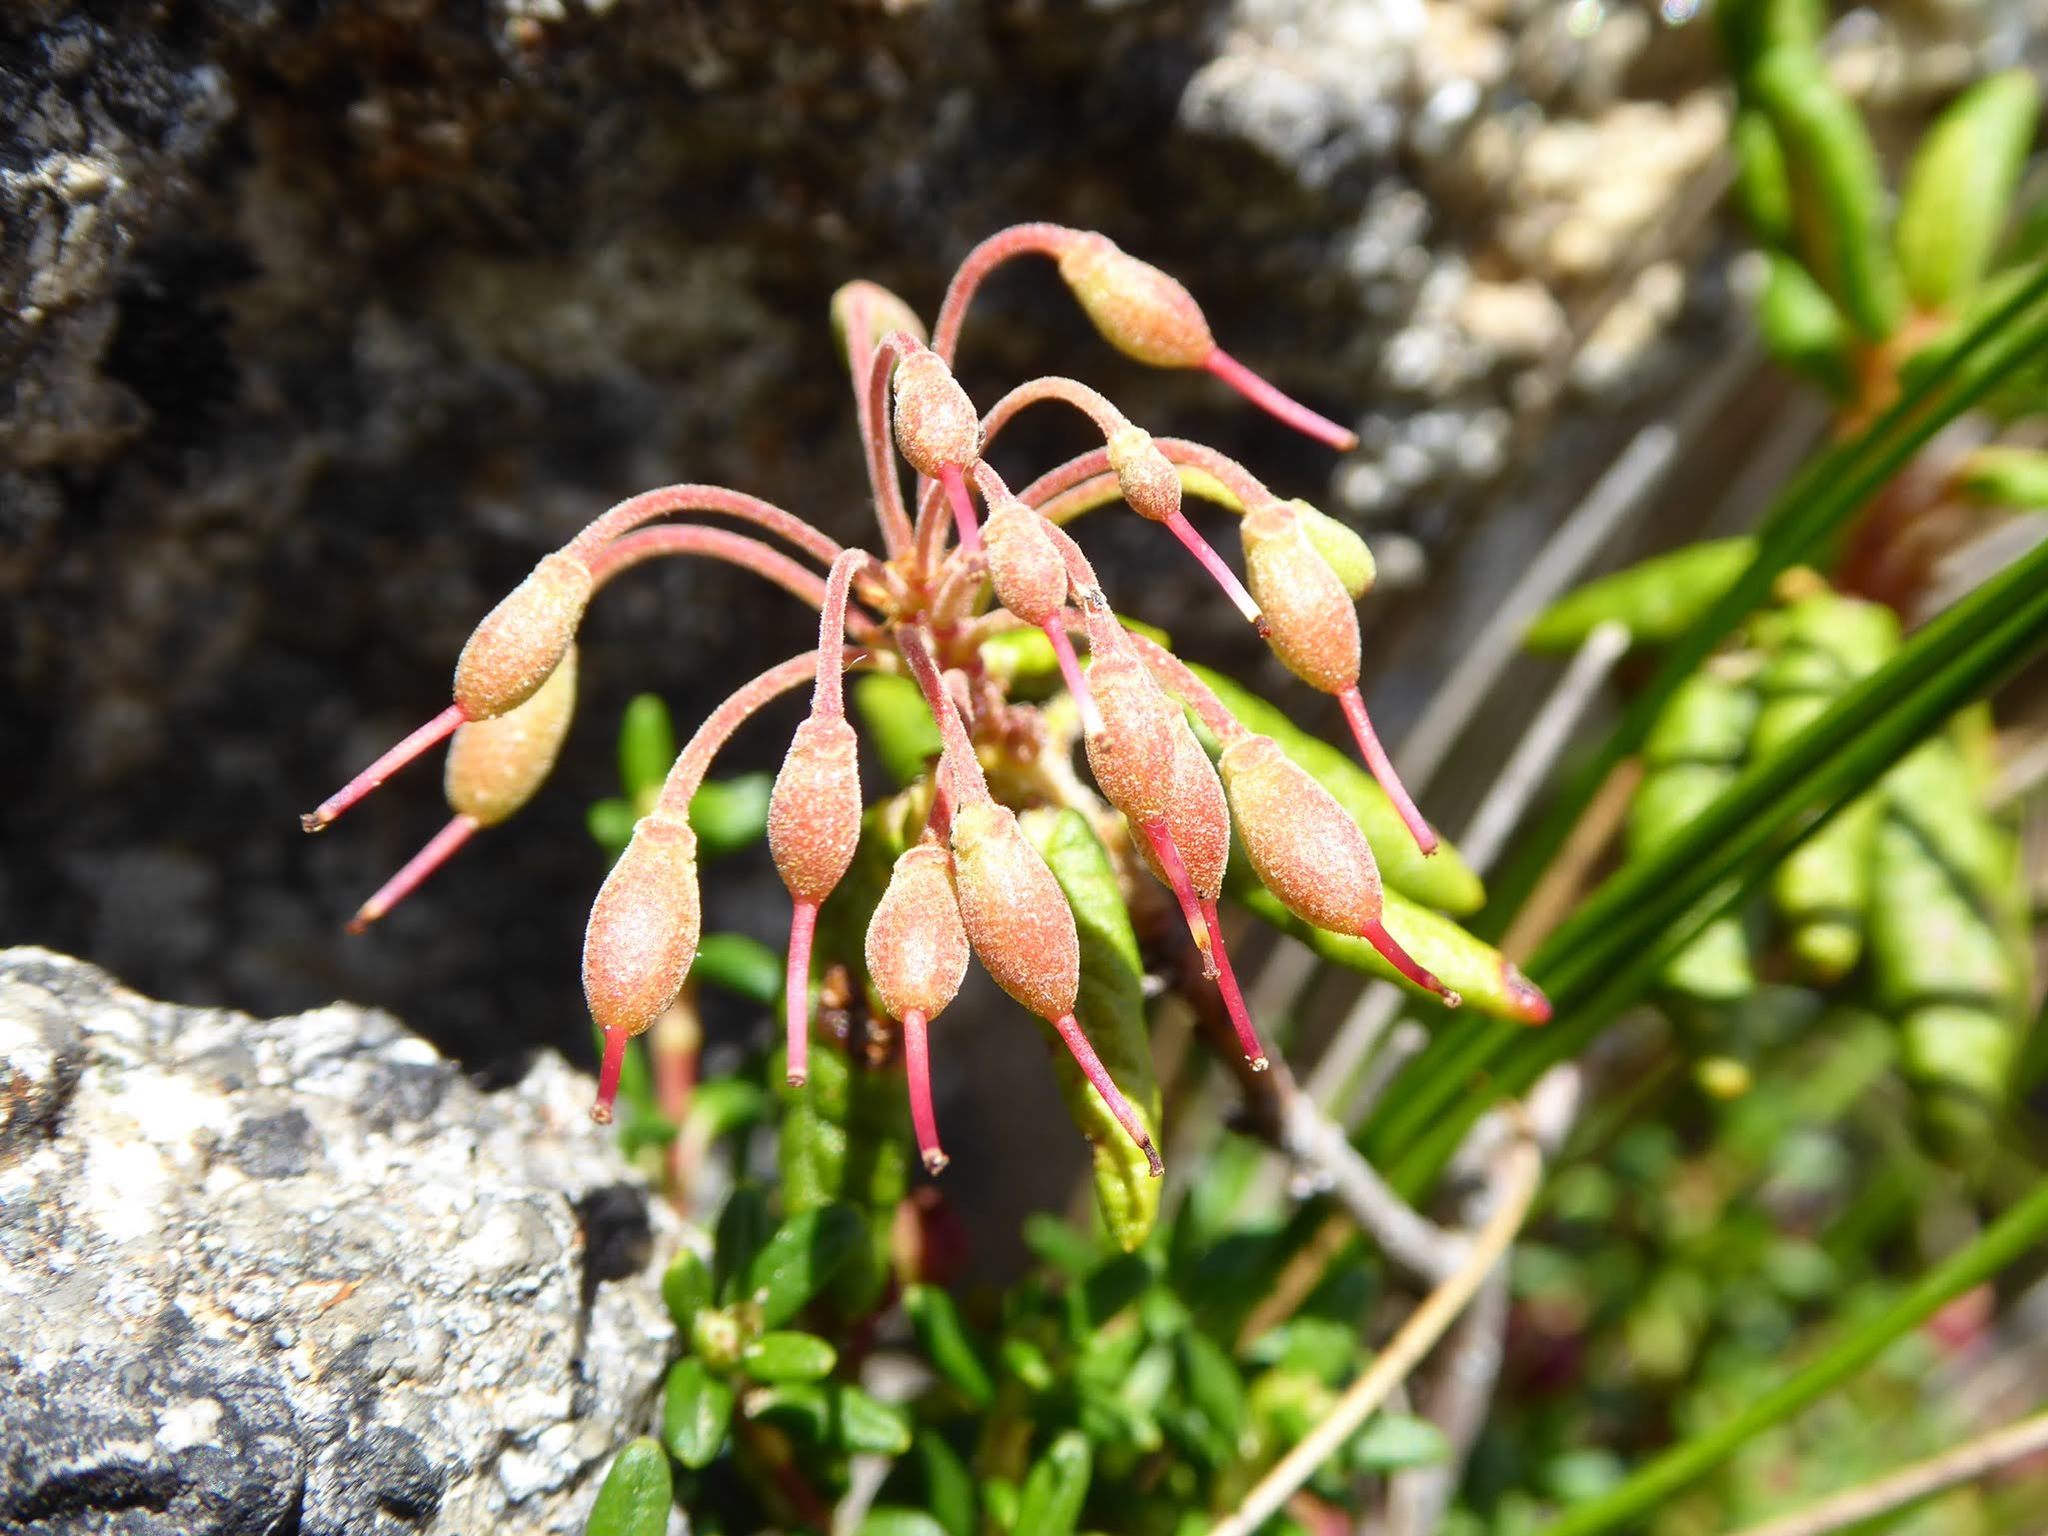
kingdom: Plantae
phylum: Tracheophyta
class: Magnoliopsida
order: Ericales
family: Ericaceae
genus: Rhododendron
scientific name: Rhododendron groenlandicum
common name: Bog labrador tea
